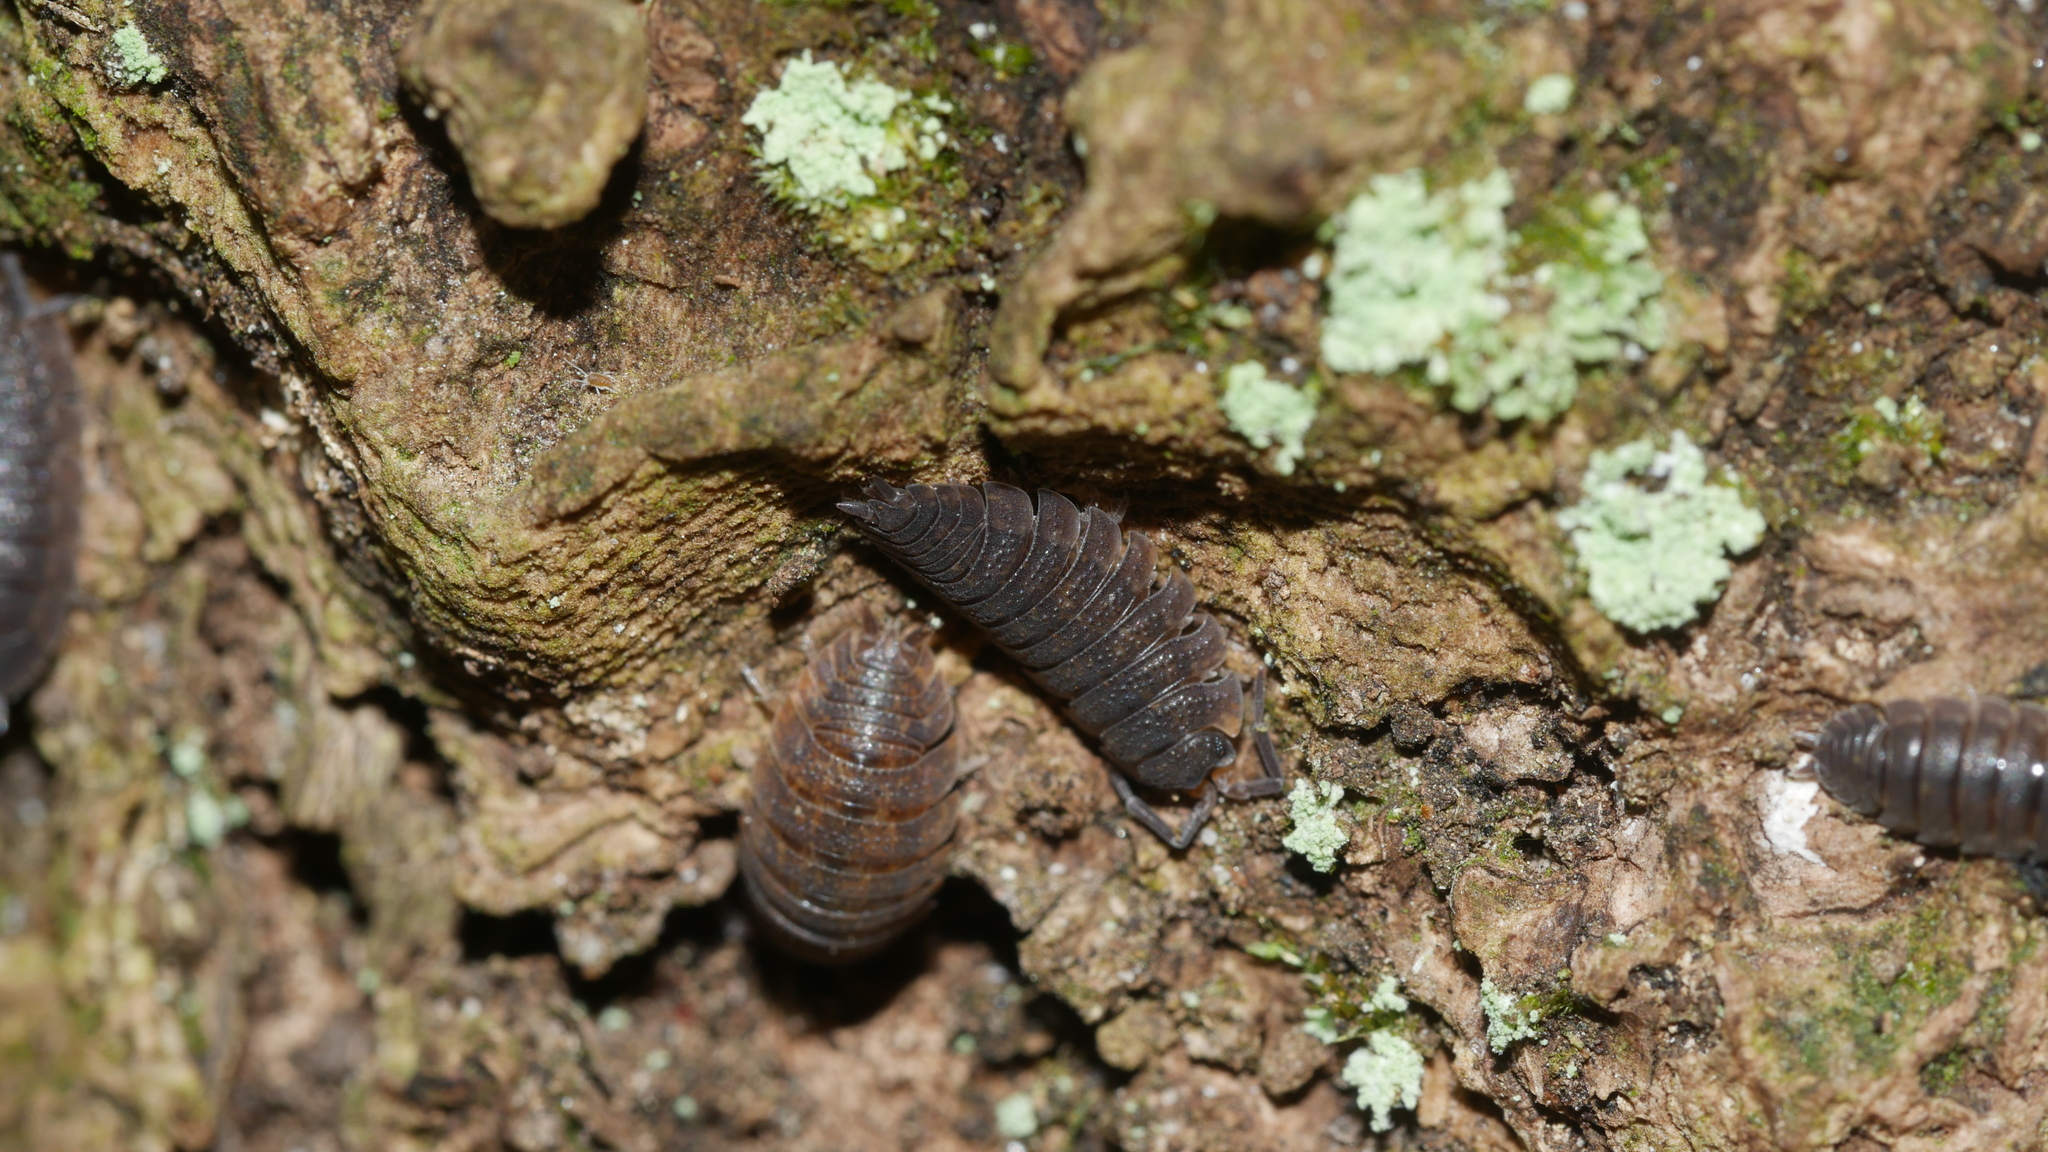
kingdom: Animalia
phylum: Arthropoda
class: Malacostraca
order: Isopoda
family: Porcellionidae
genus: Porcellio
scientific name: Porcellio scaber
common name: Common rough woodlouse
